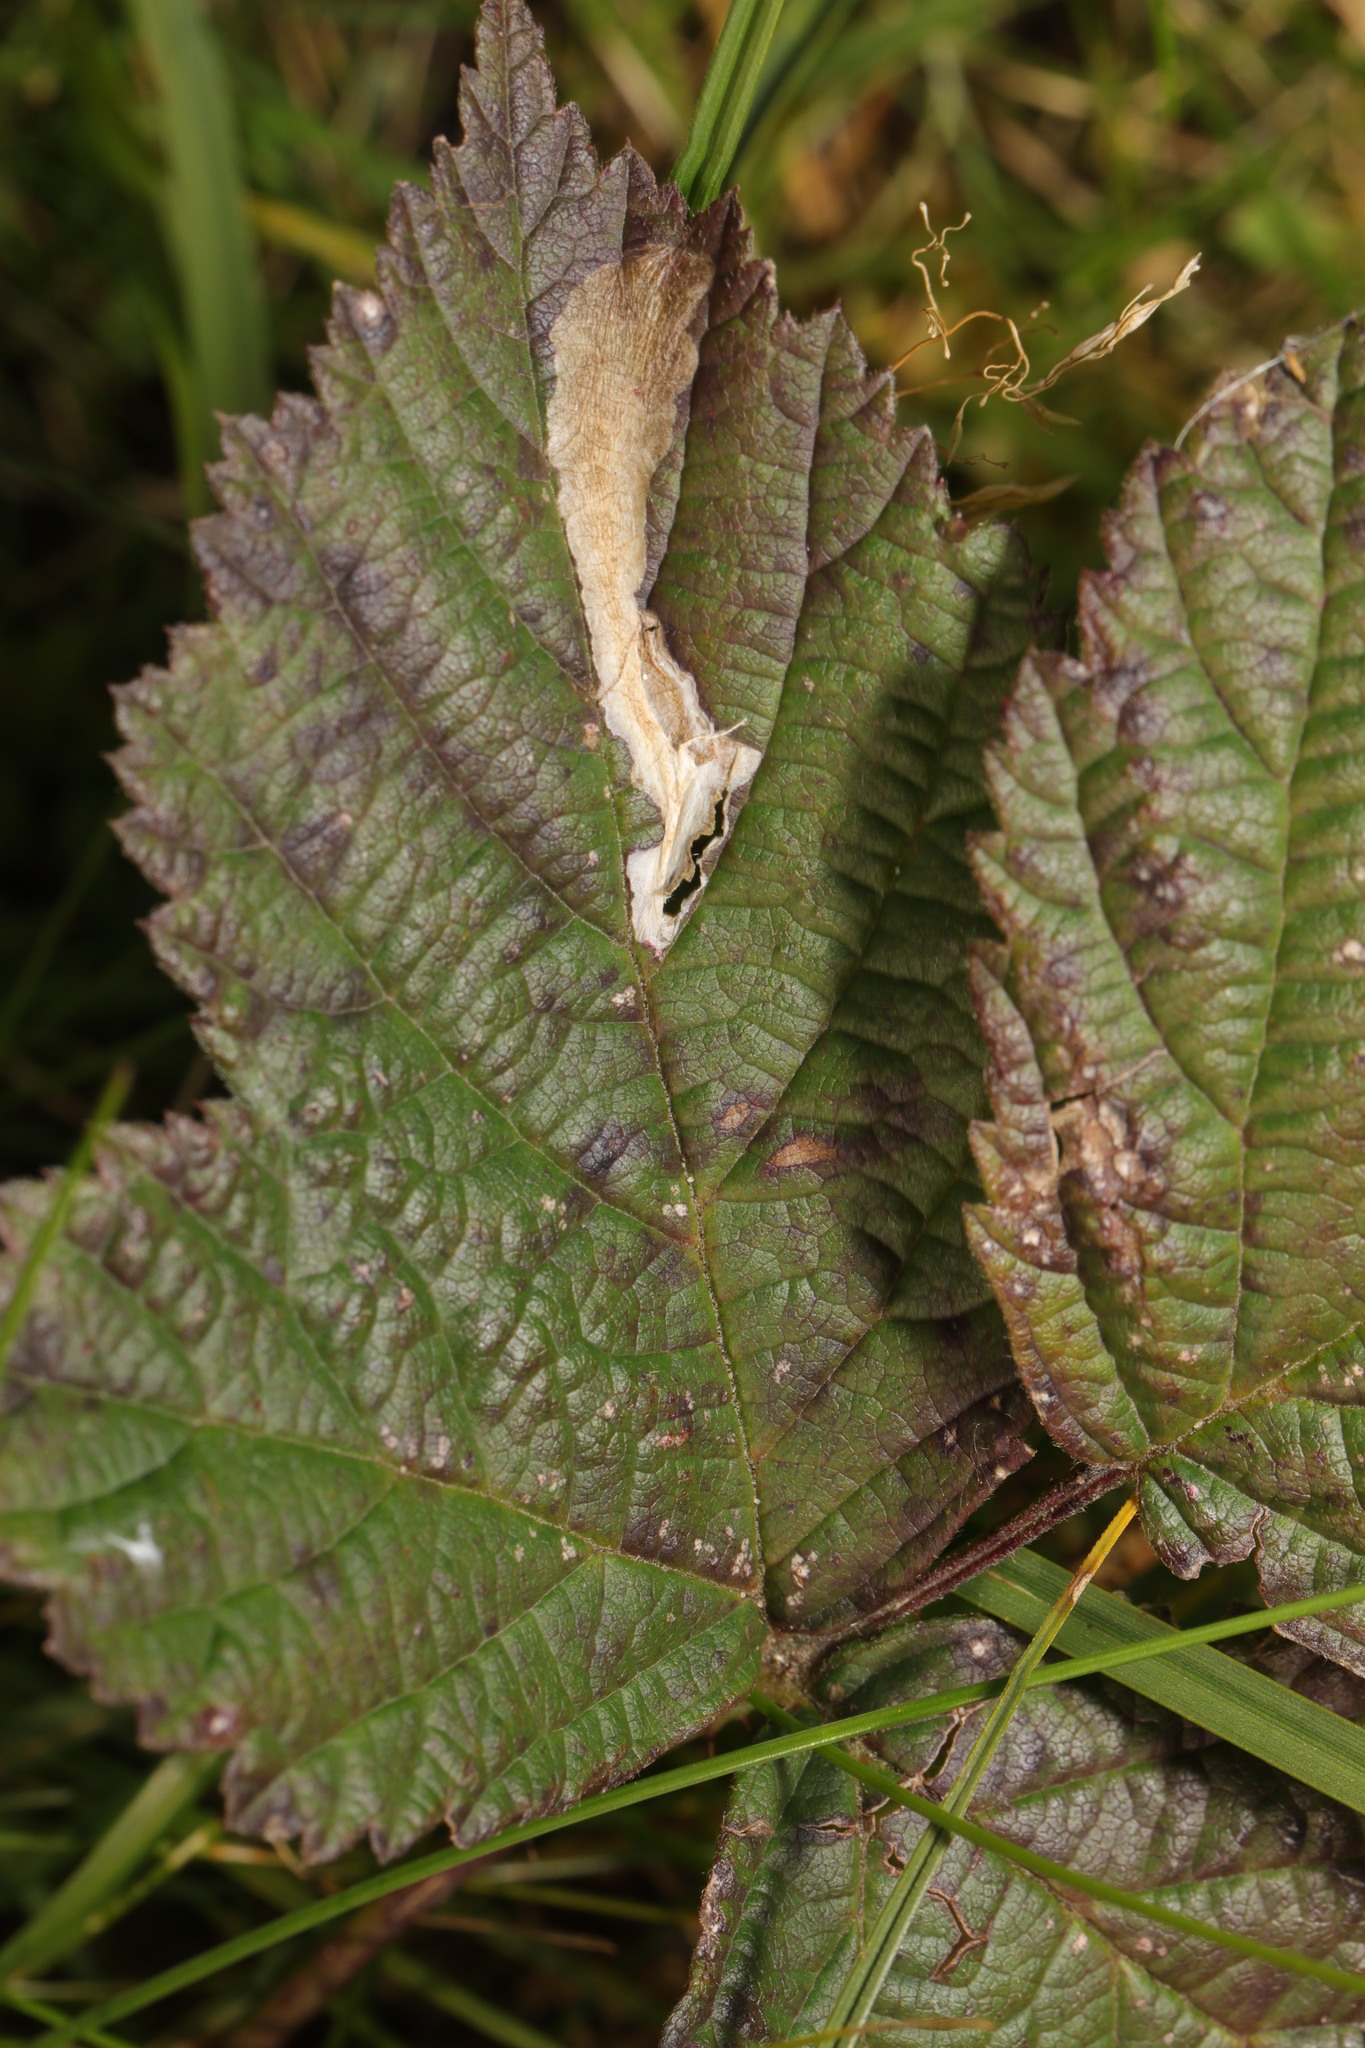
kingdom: Animalia
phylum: Arthropoda
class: Insecta
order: Lepidoptera
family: Tischeriidae
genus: Coptotriche
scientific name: Coptotriche marginea
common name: Bordered carl
